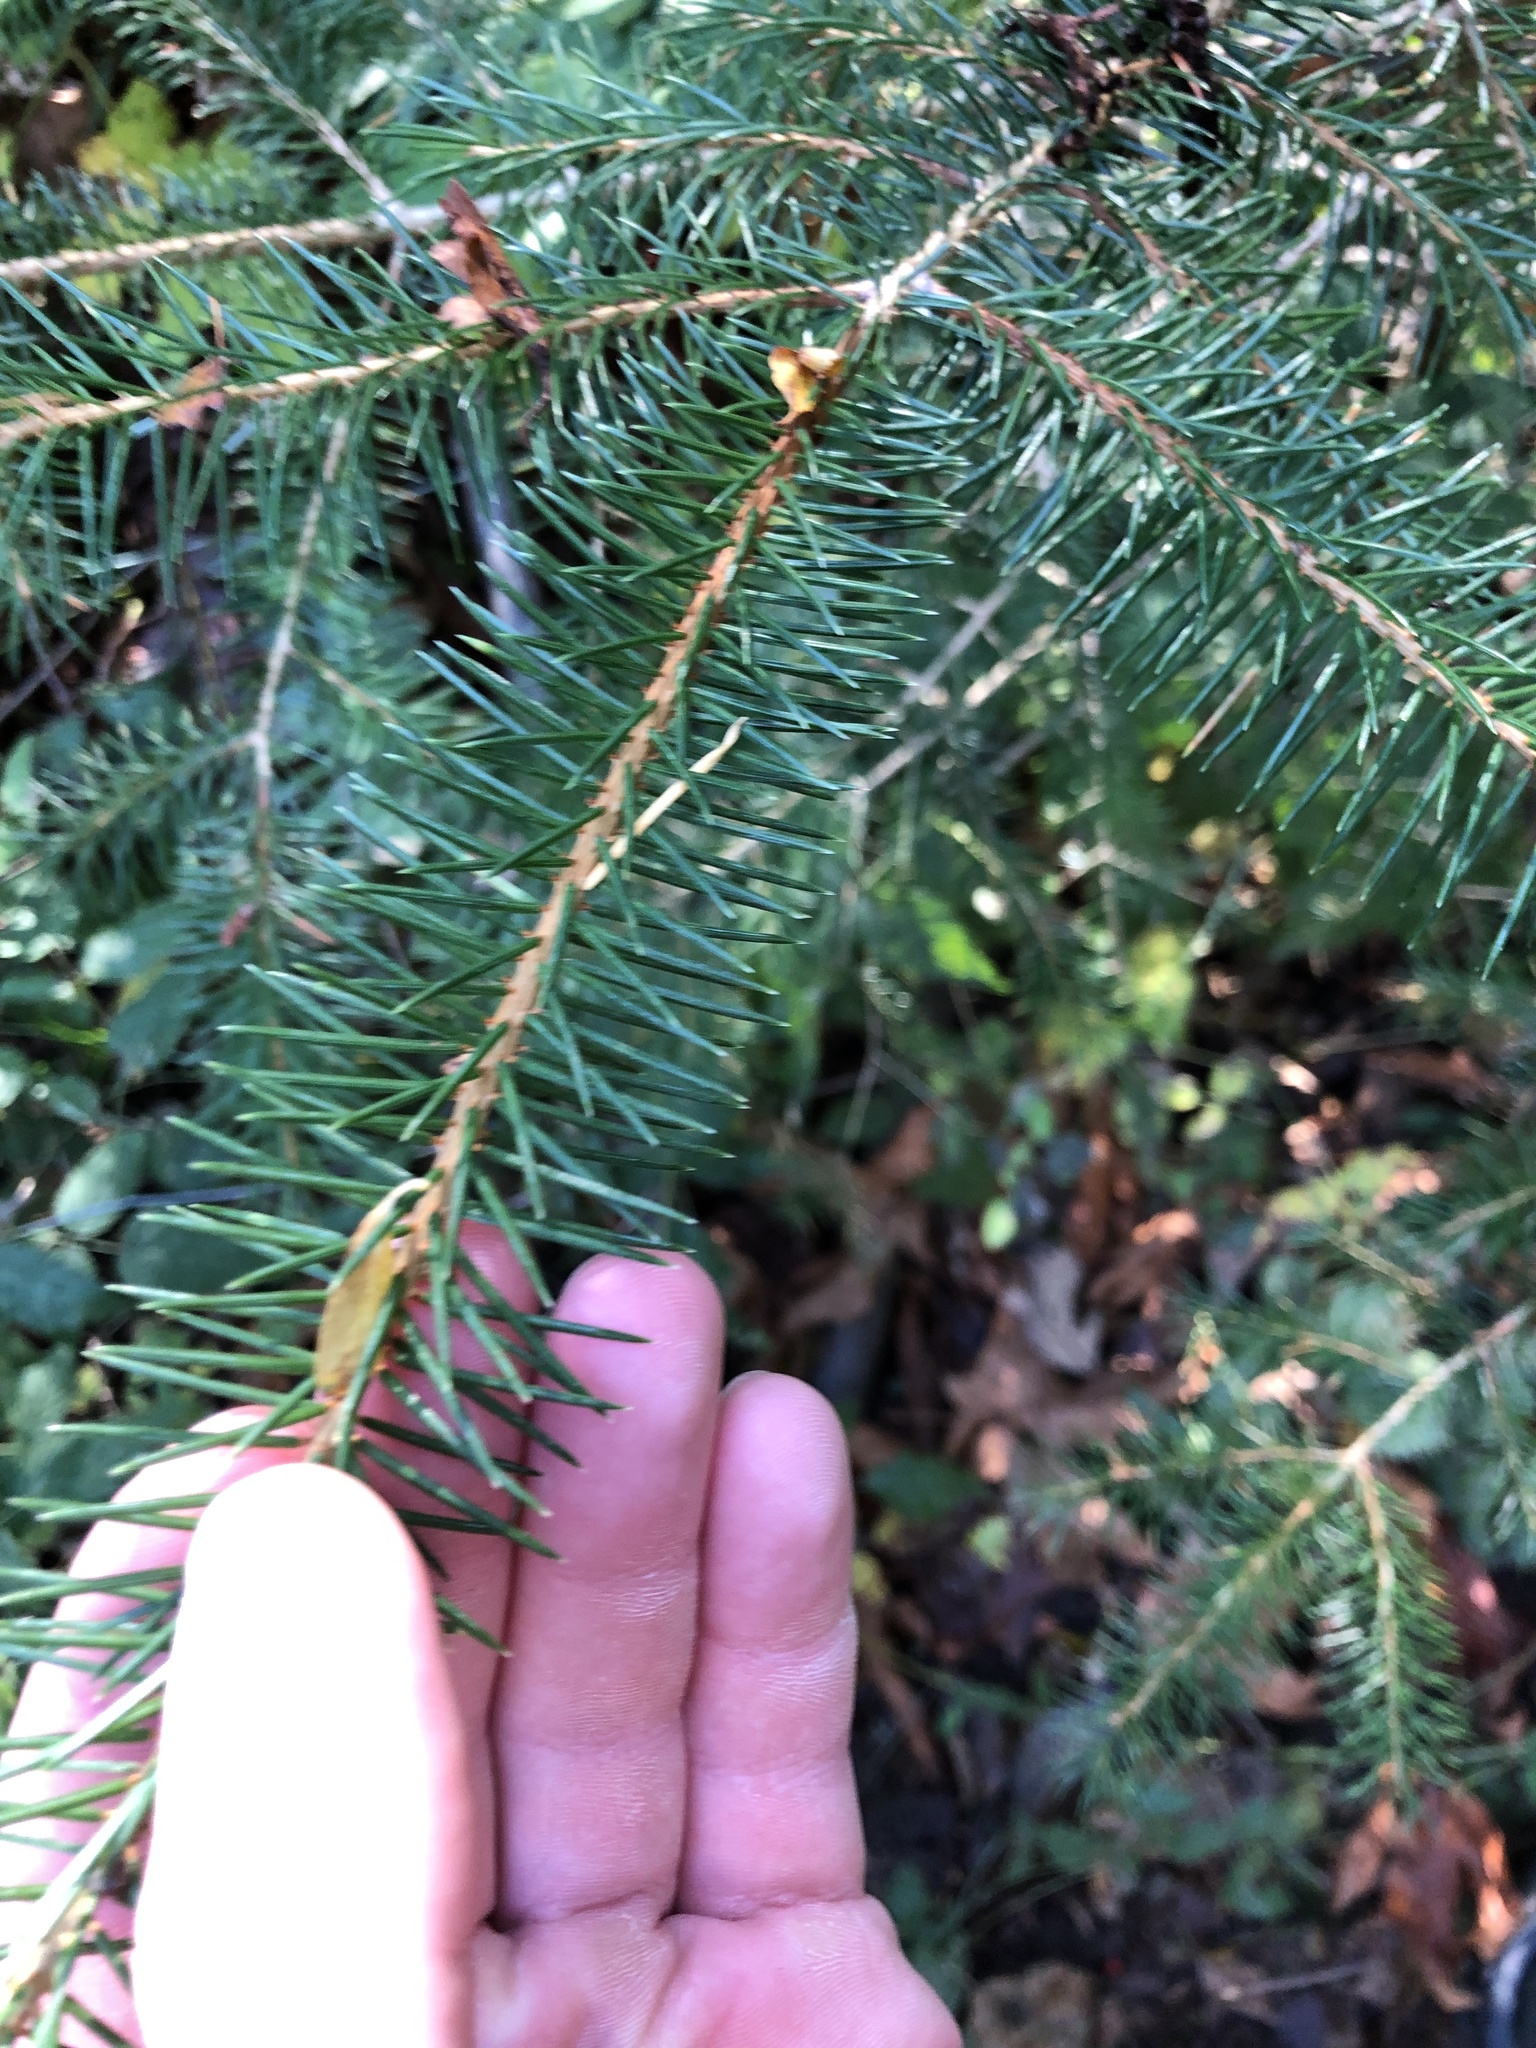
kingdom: Plantae
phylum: Tracheophyta
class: Pinopsida
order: Pinales
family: Pinaceae
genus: Picea
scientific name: Picea sitchensis
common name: Sitka spruce
